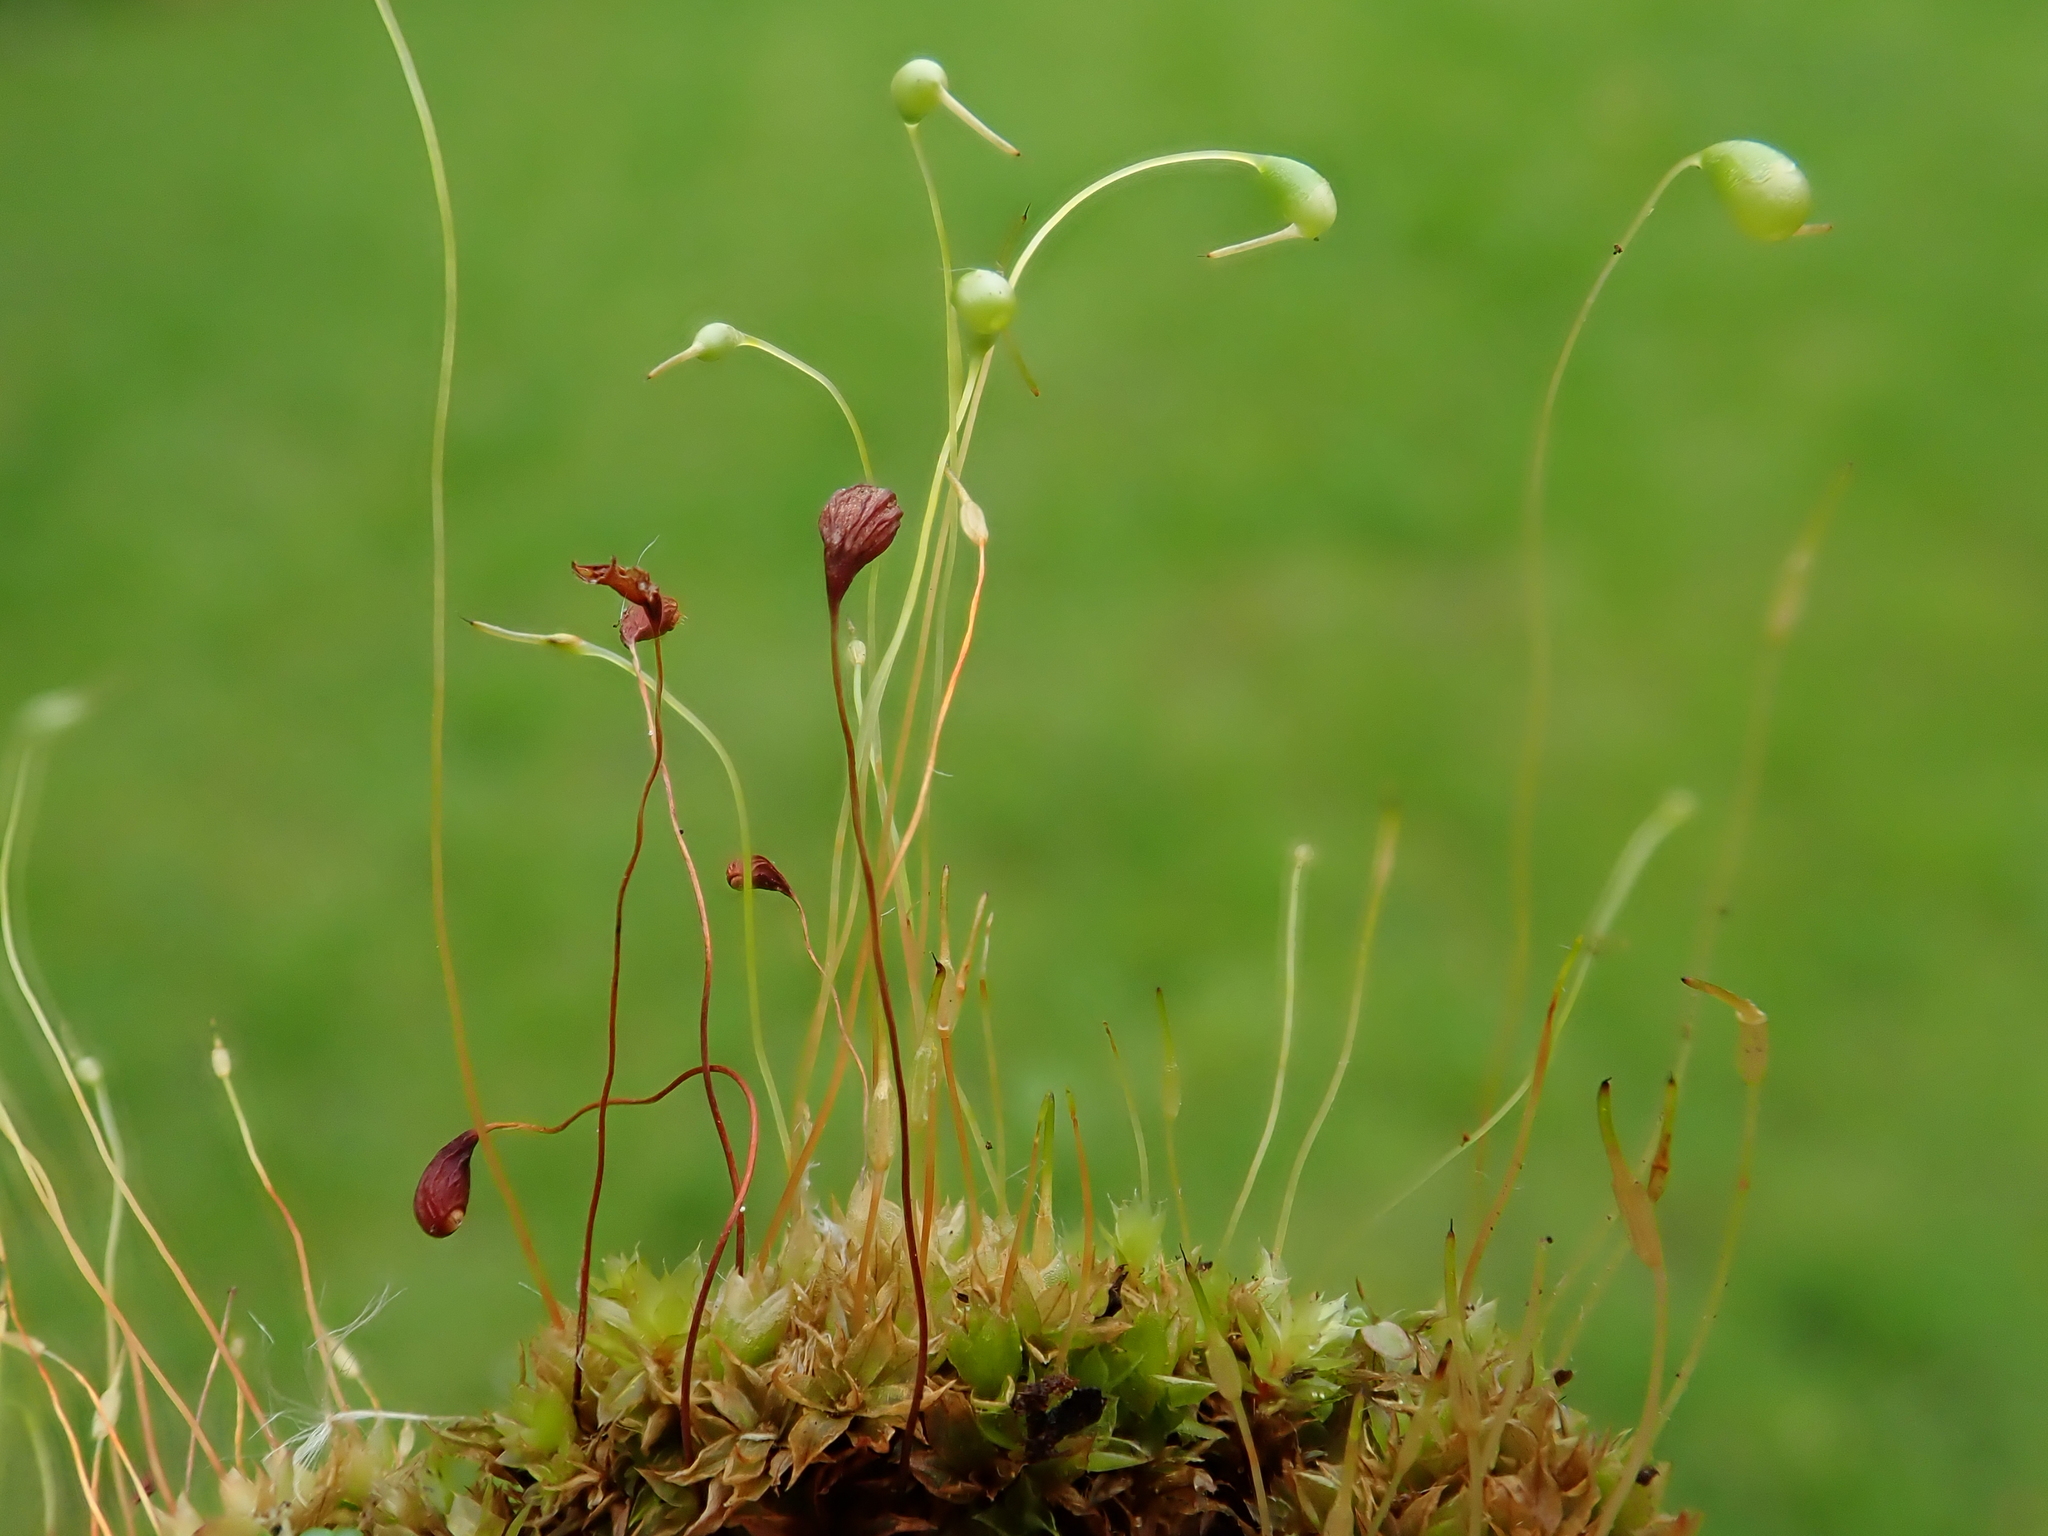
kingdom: Plantae
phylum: Bryophyta
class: Bryopsida
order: Funariales
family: Funariaceae
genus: Funaria
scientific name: Funaria hygrometrica
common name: Common cord moss
